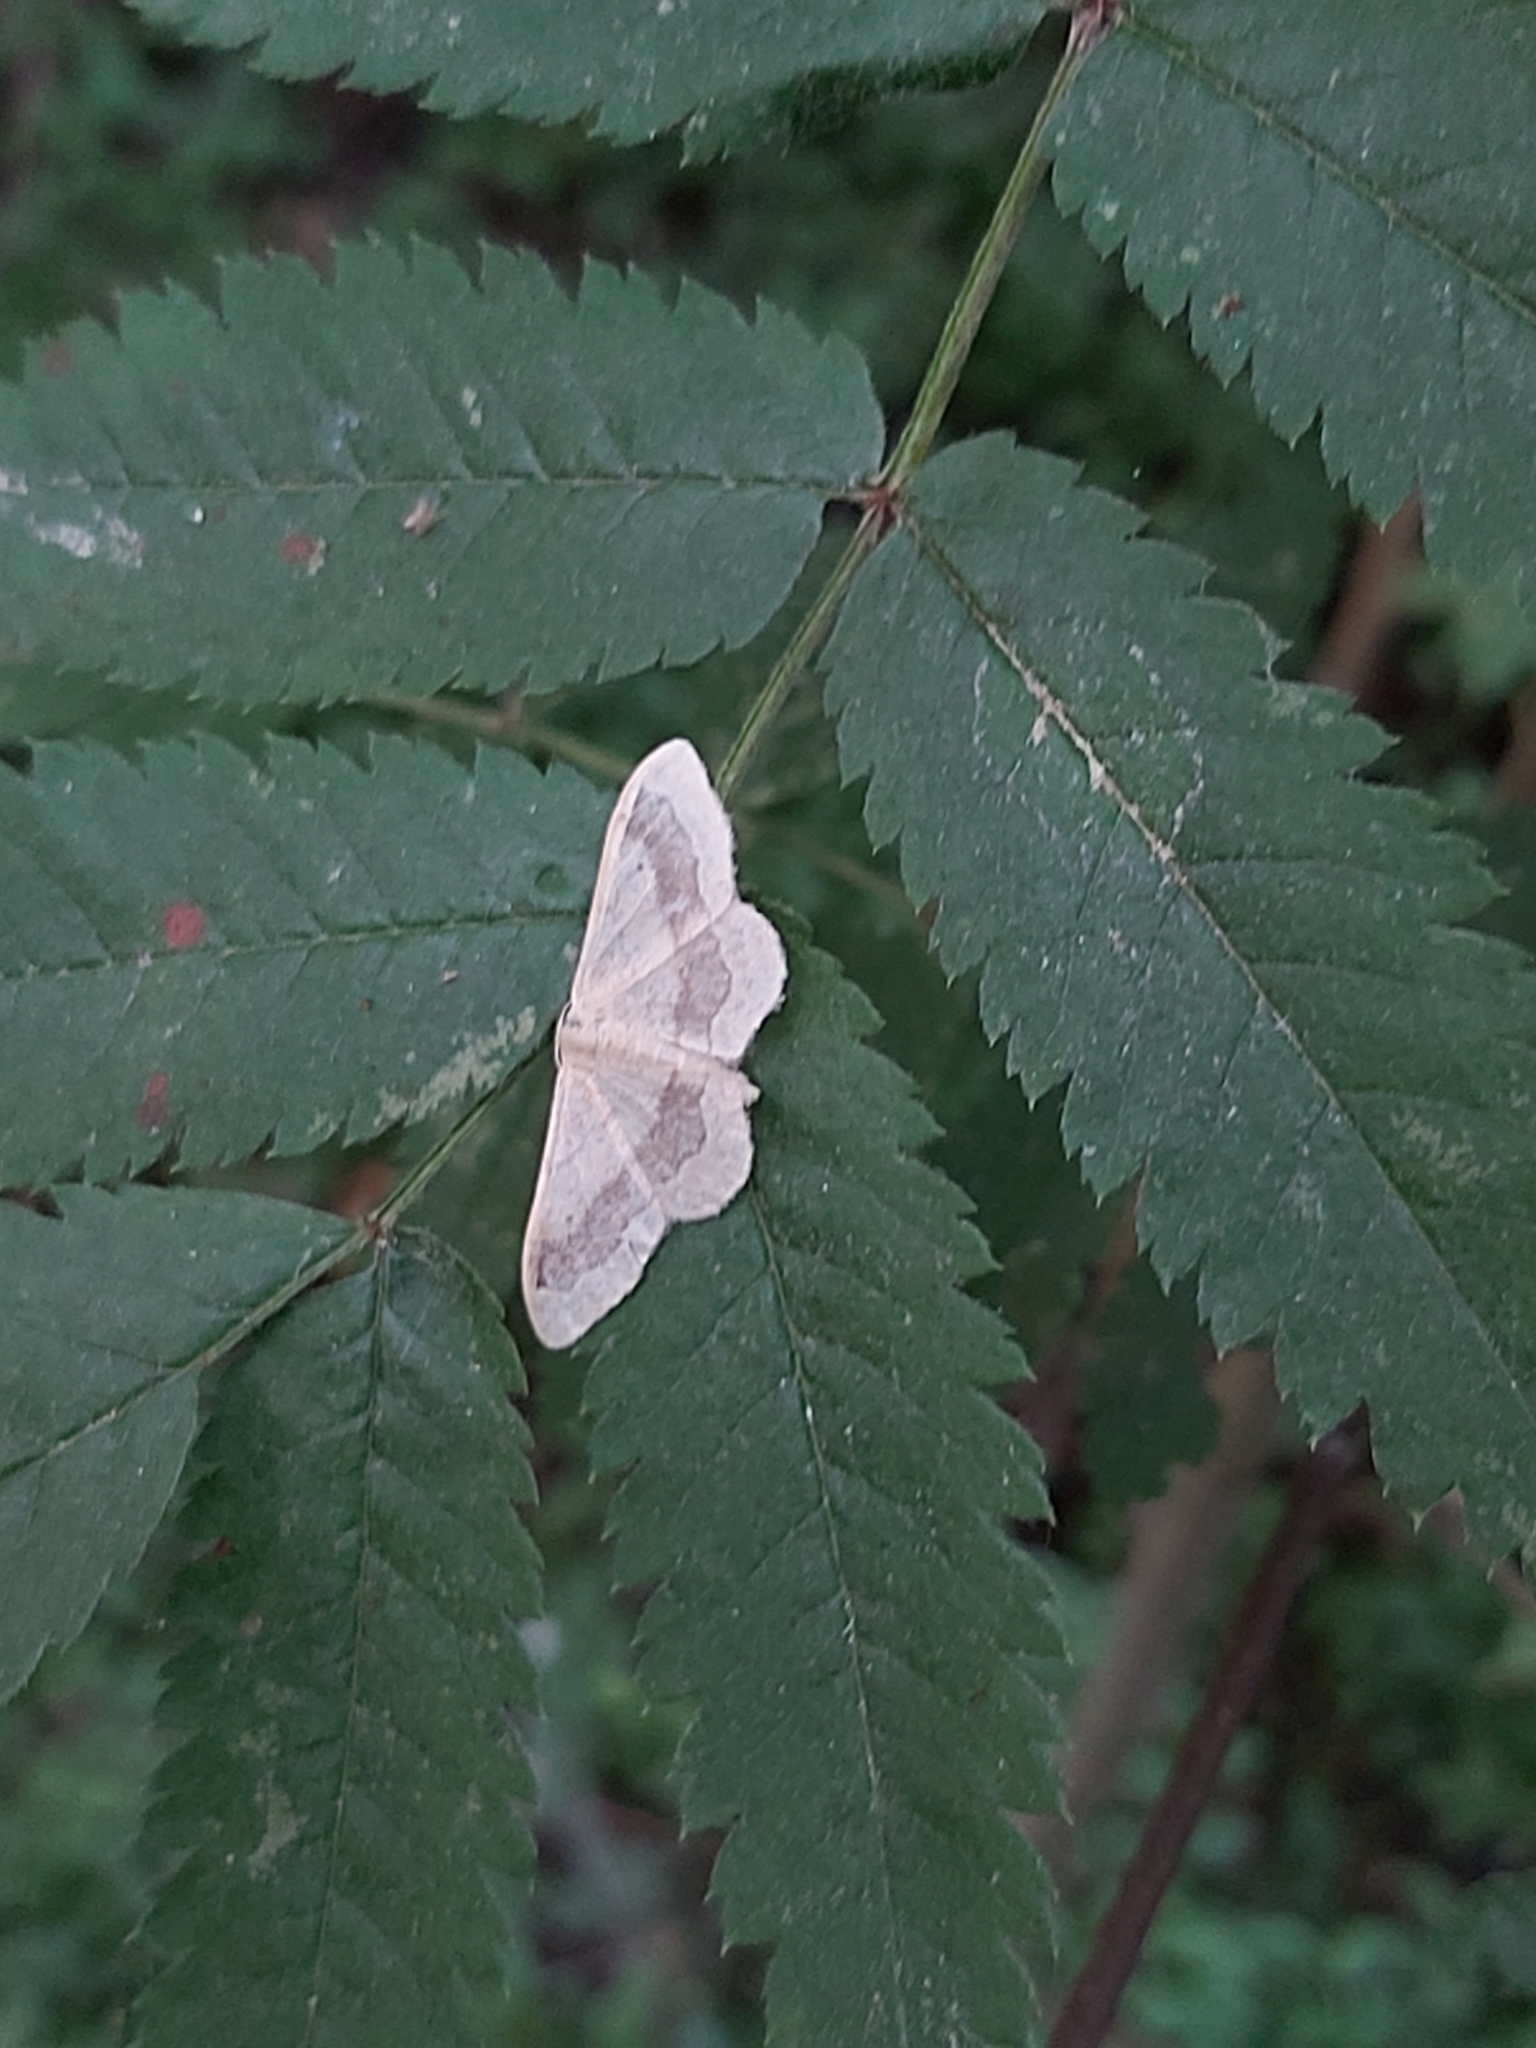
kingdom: Animalia
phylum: Arthropoda
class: Insecta
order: Lepidoptera
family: Geometridae
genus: Idaea
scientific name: Idaea aversata
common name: Riband wave
